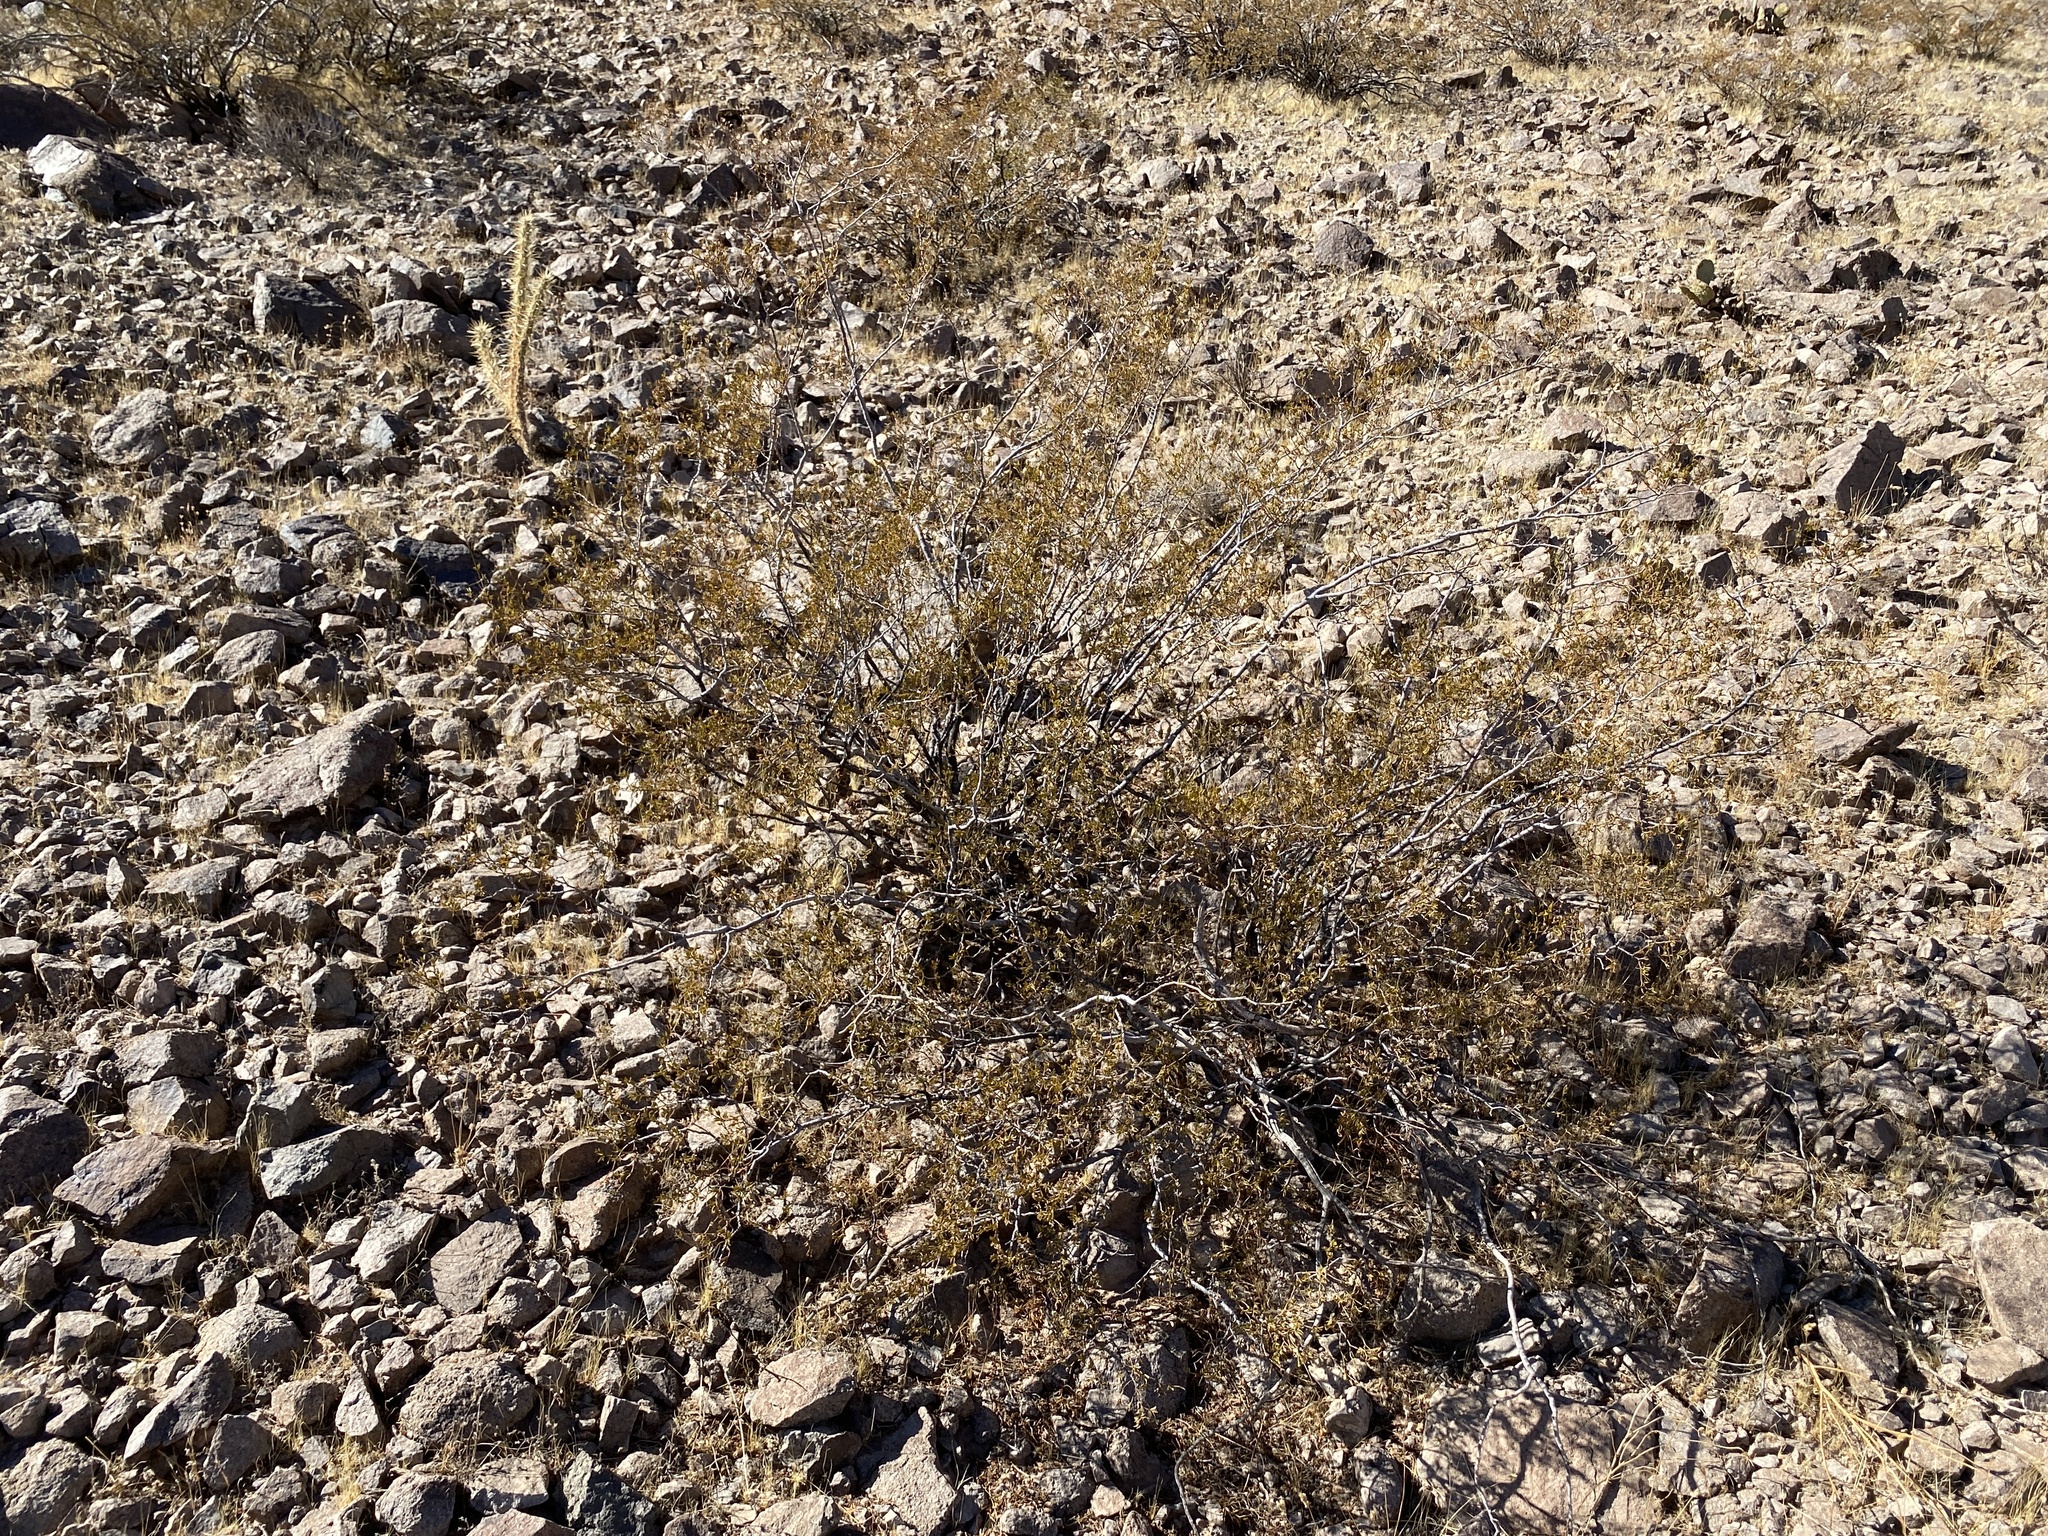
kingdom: Plantae
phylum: Tracheophyta
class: Magnoliopsida
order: Zygophyllales
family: Zygophyllaceae
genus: Larrea
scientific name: Larrea tridentata
